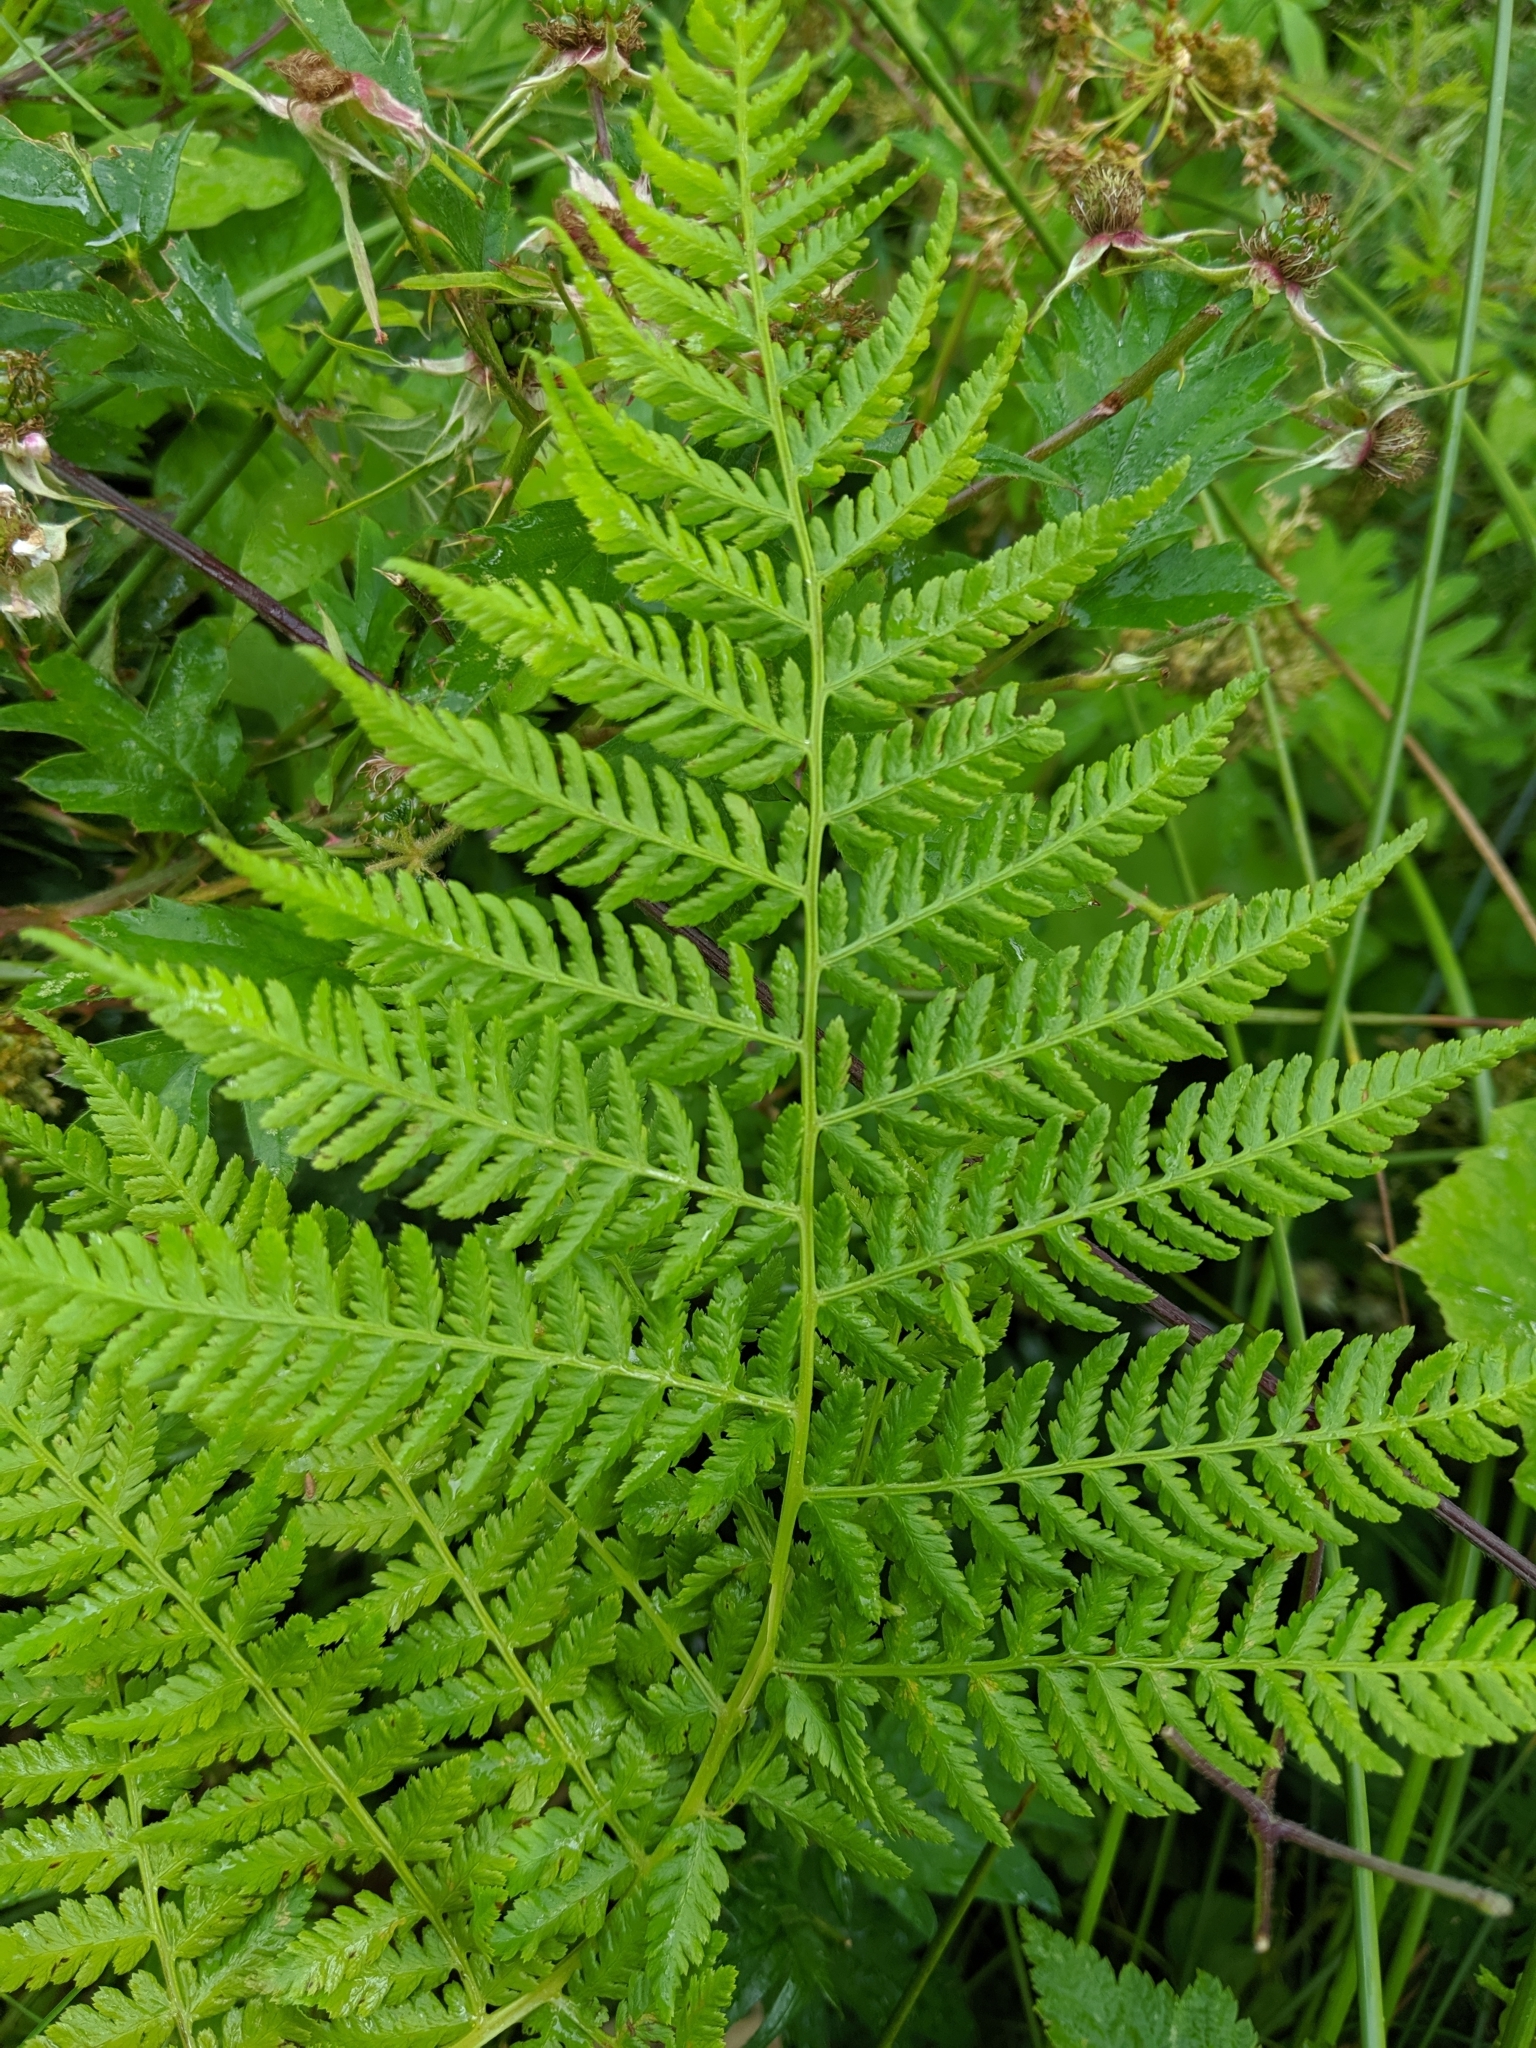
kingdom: Plantae
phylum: Tracheophyta
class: Polypodiopsida
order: Polypodiales
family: Athyriaceae
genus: Athyrium
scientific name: Athyrium filix-femina
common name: Lady fern
